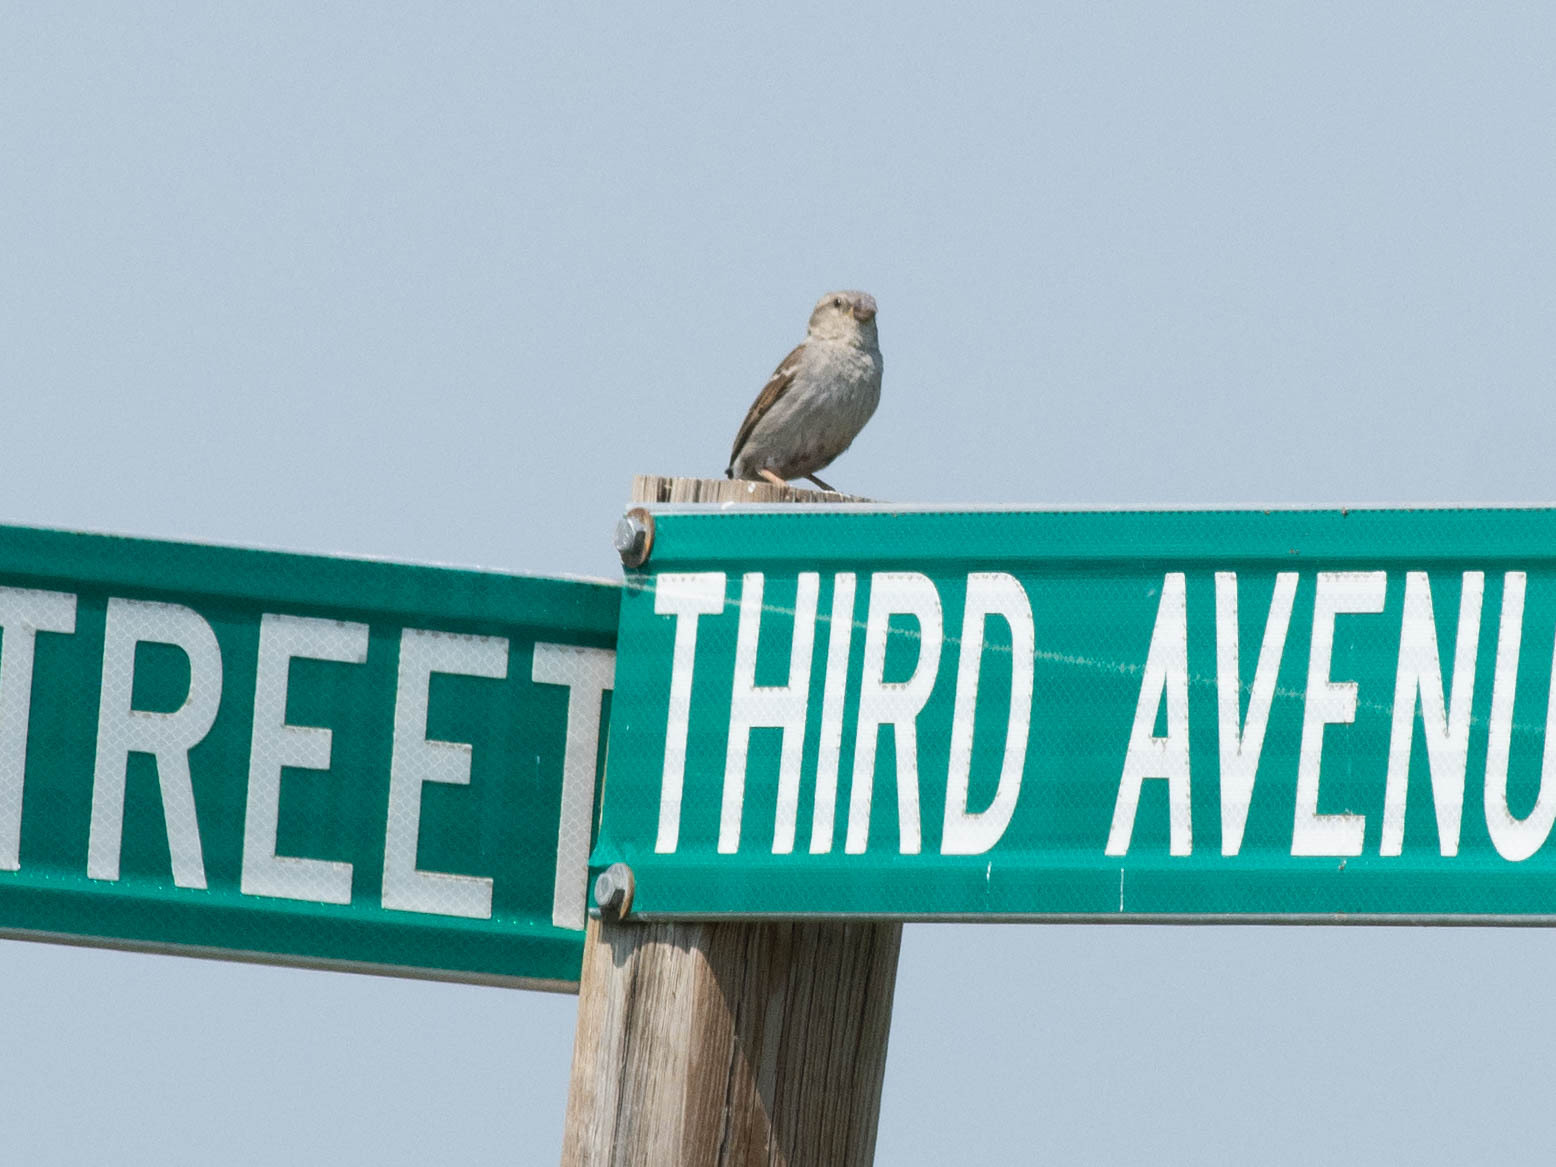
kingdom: Animalia
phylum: Chordata
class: Aves
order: Passeriformes
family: Passeridae
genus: Passer
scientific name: Passer domesticus
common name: House sparrow
